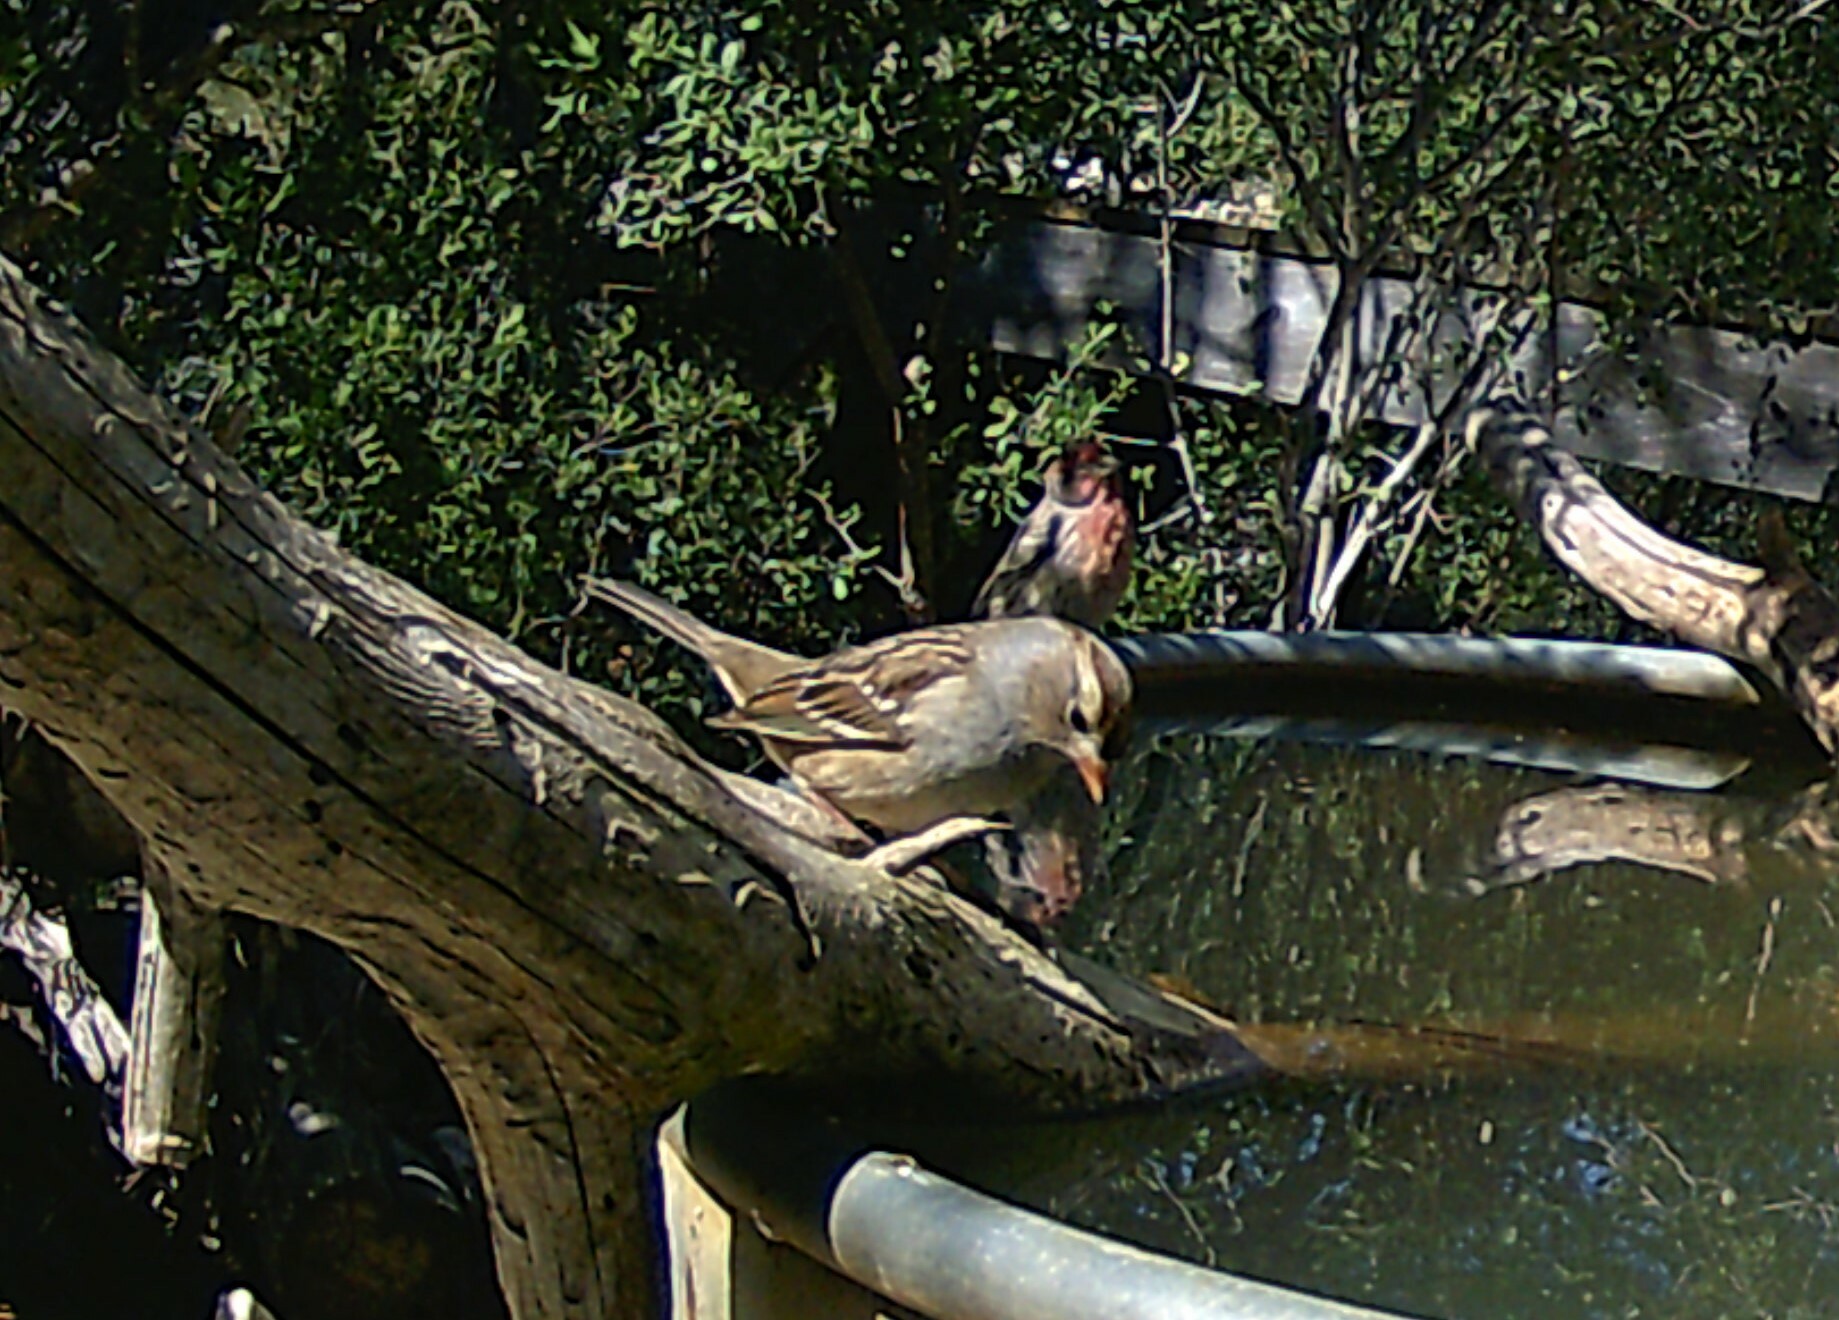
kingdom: Animalia
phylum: Chordata
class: Aves
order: Passeriformes
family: Passerellidae
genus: Zonotrichia
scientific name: Zonotrichia leucophrys
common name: White-crowned sparrow
